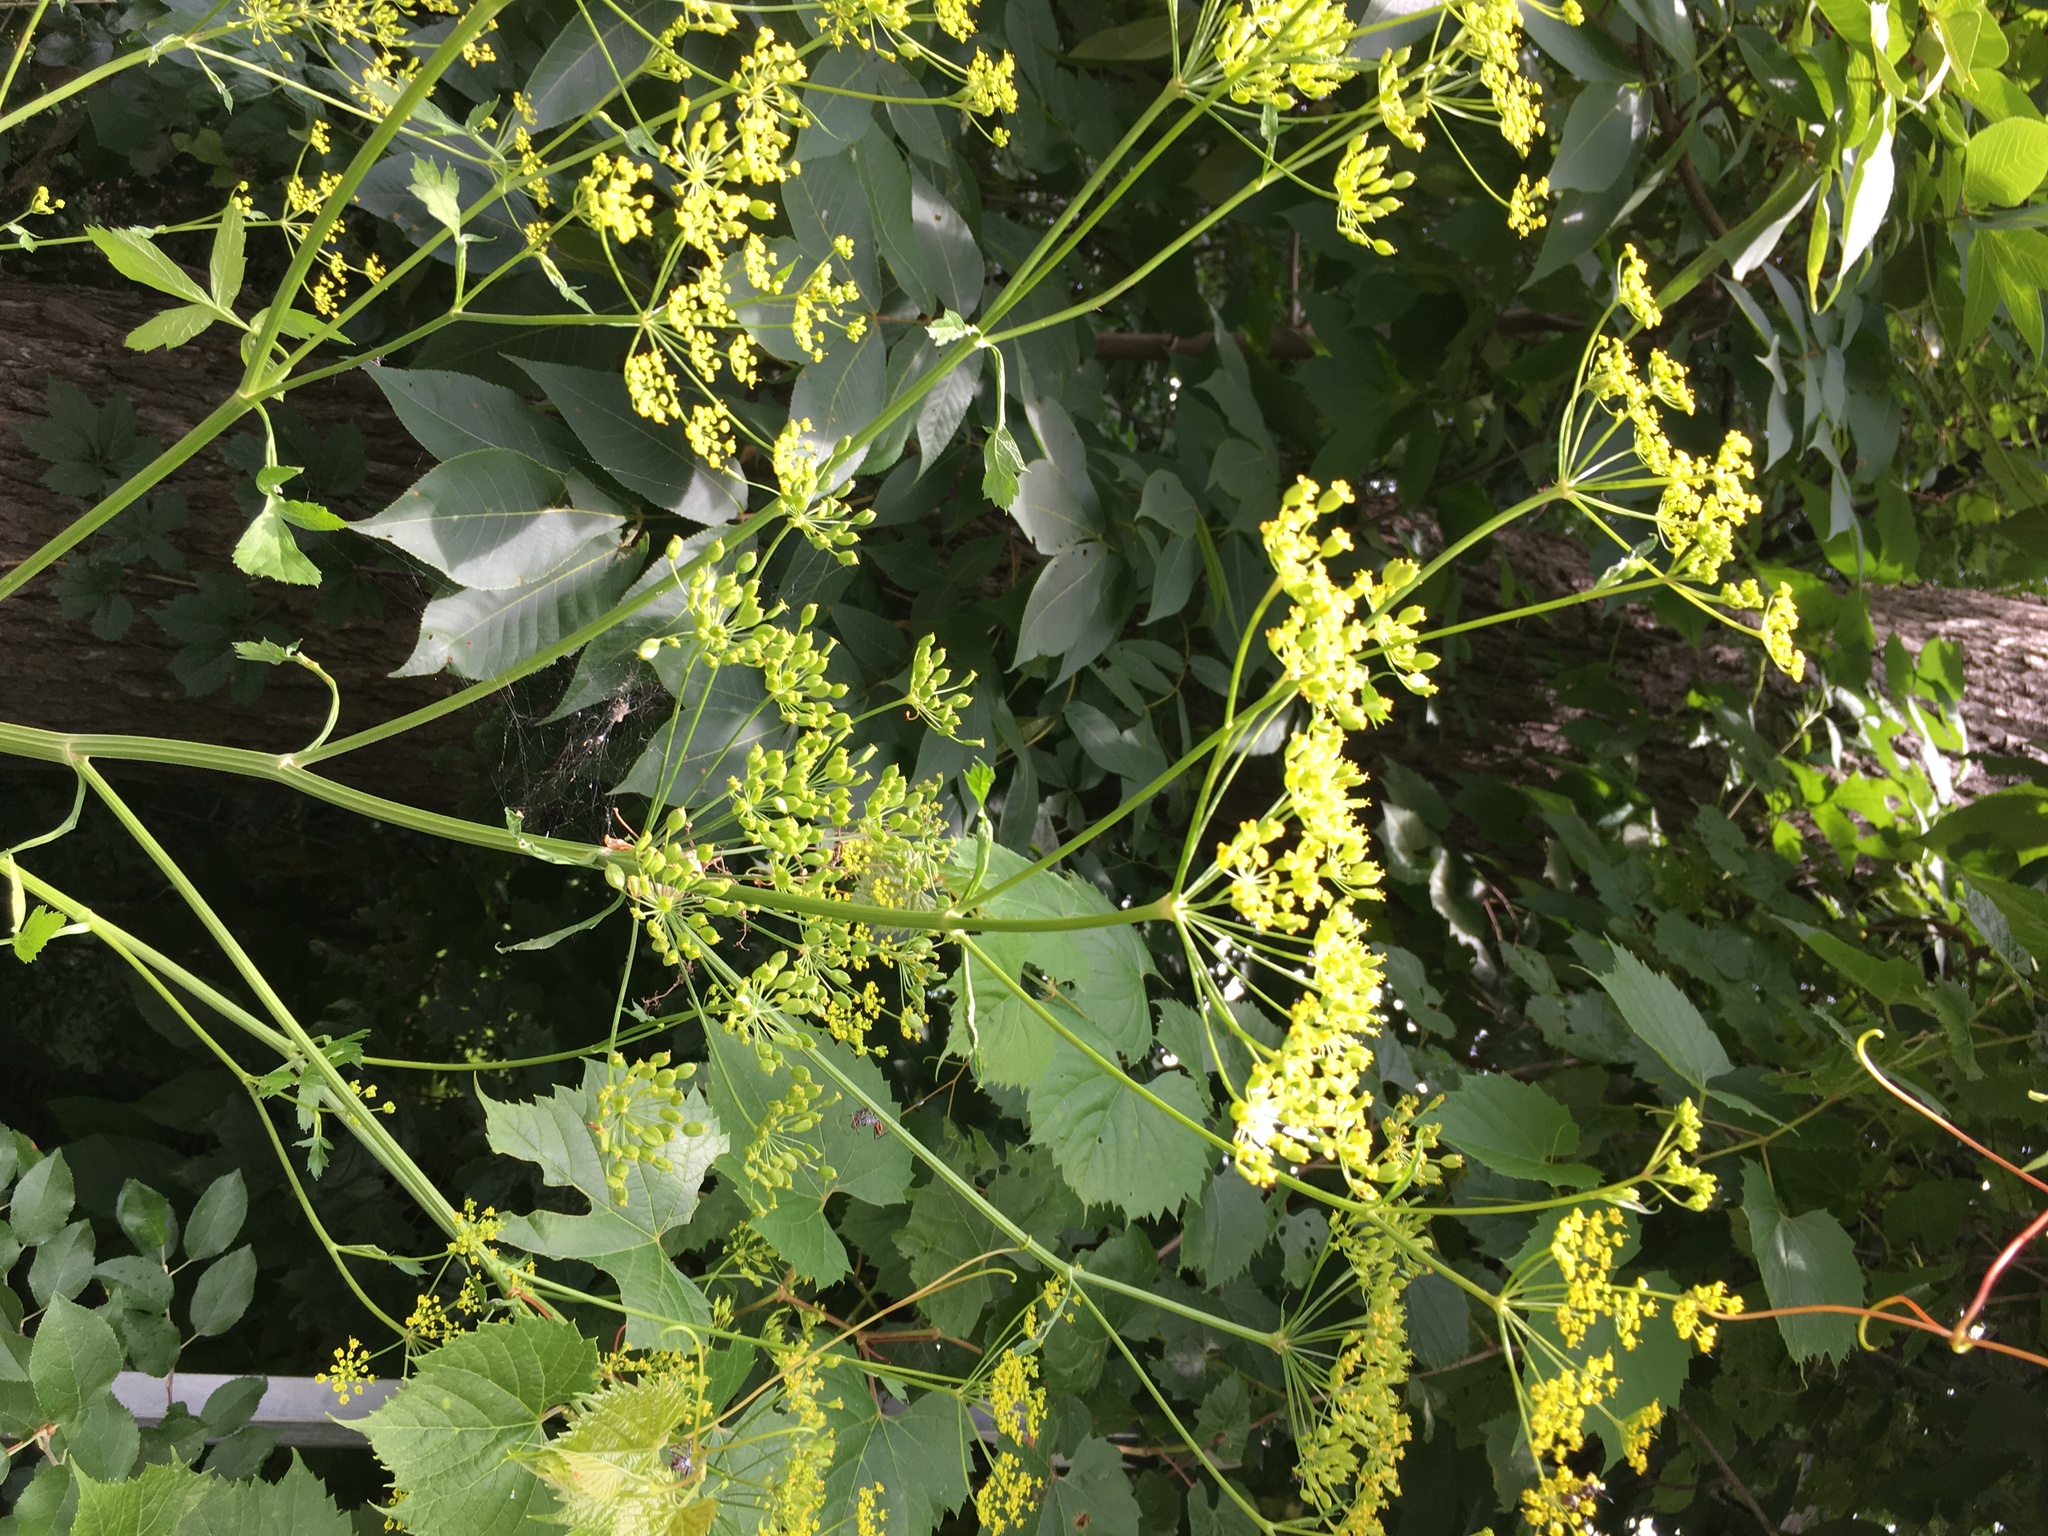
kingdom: Plantae
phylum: Tracheophyta
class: Magnoliopsida
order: Apiales
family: Apiaceae
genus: Pastinaca
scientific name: Pastinaca sativa
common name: Wild parsnip
